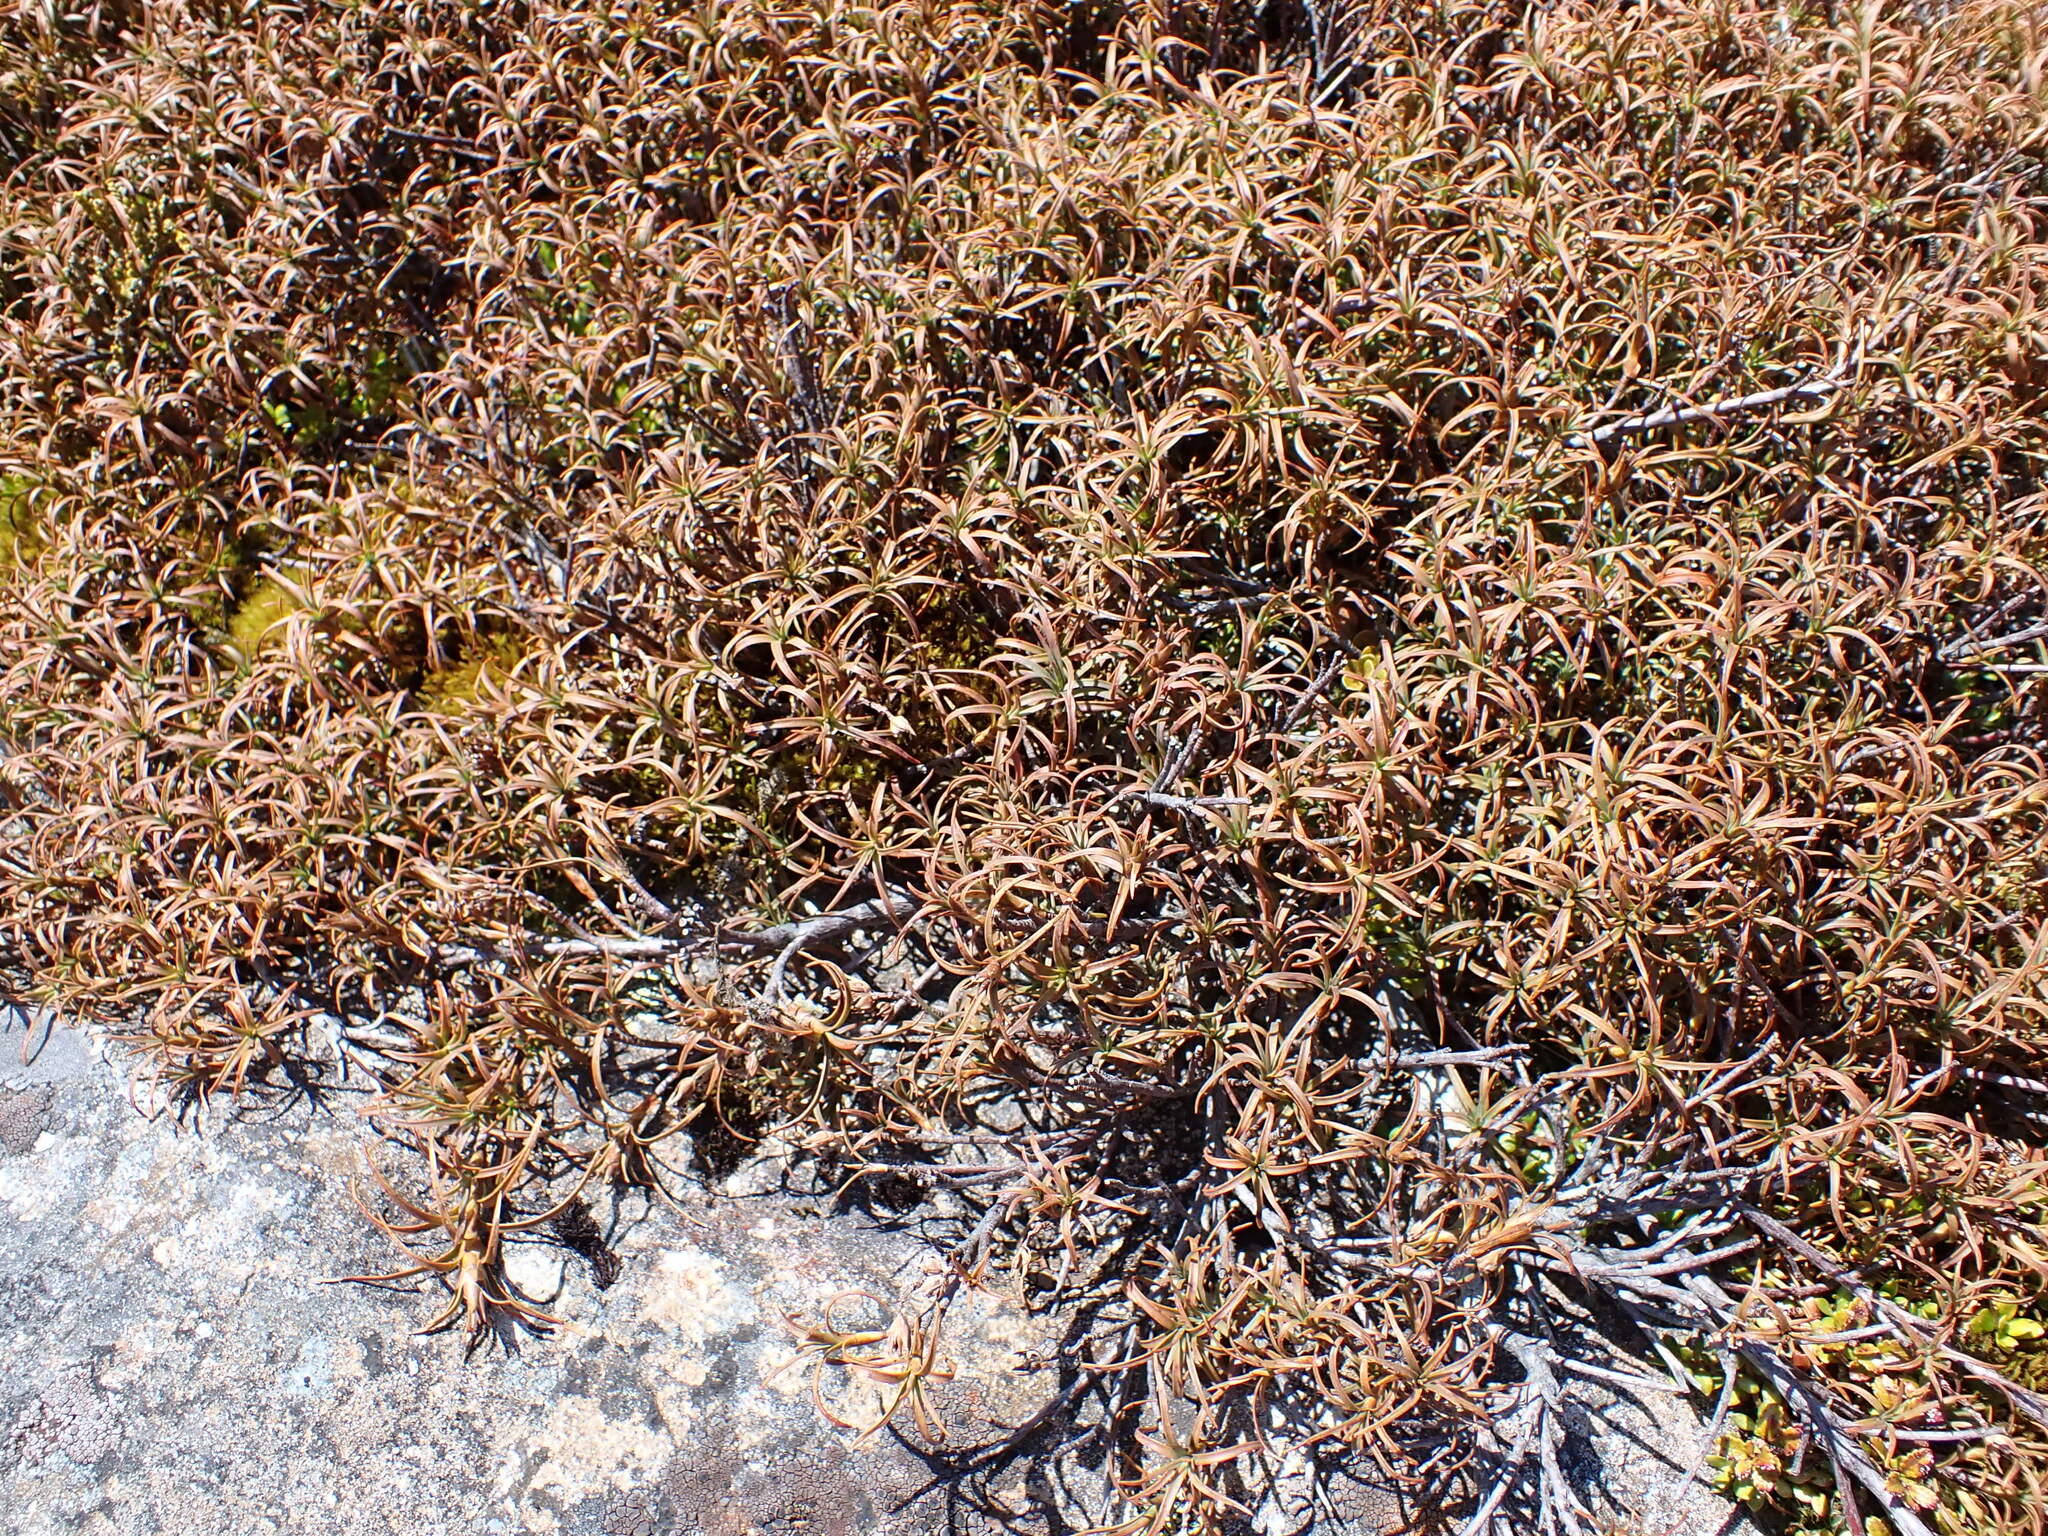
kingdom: Plantae
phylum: Tracheophyta
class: Magnoliopsida
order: Ericales
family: Ericaceae
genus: Dracophyllum
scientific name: Dracophyllum recurvum
